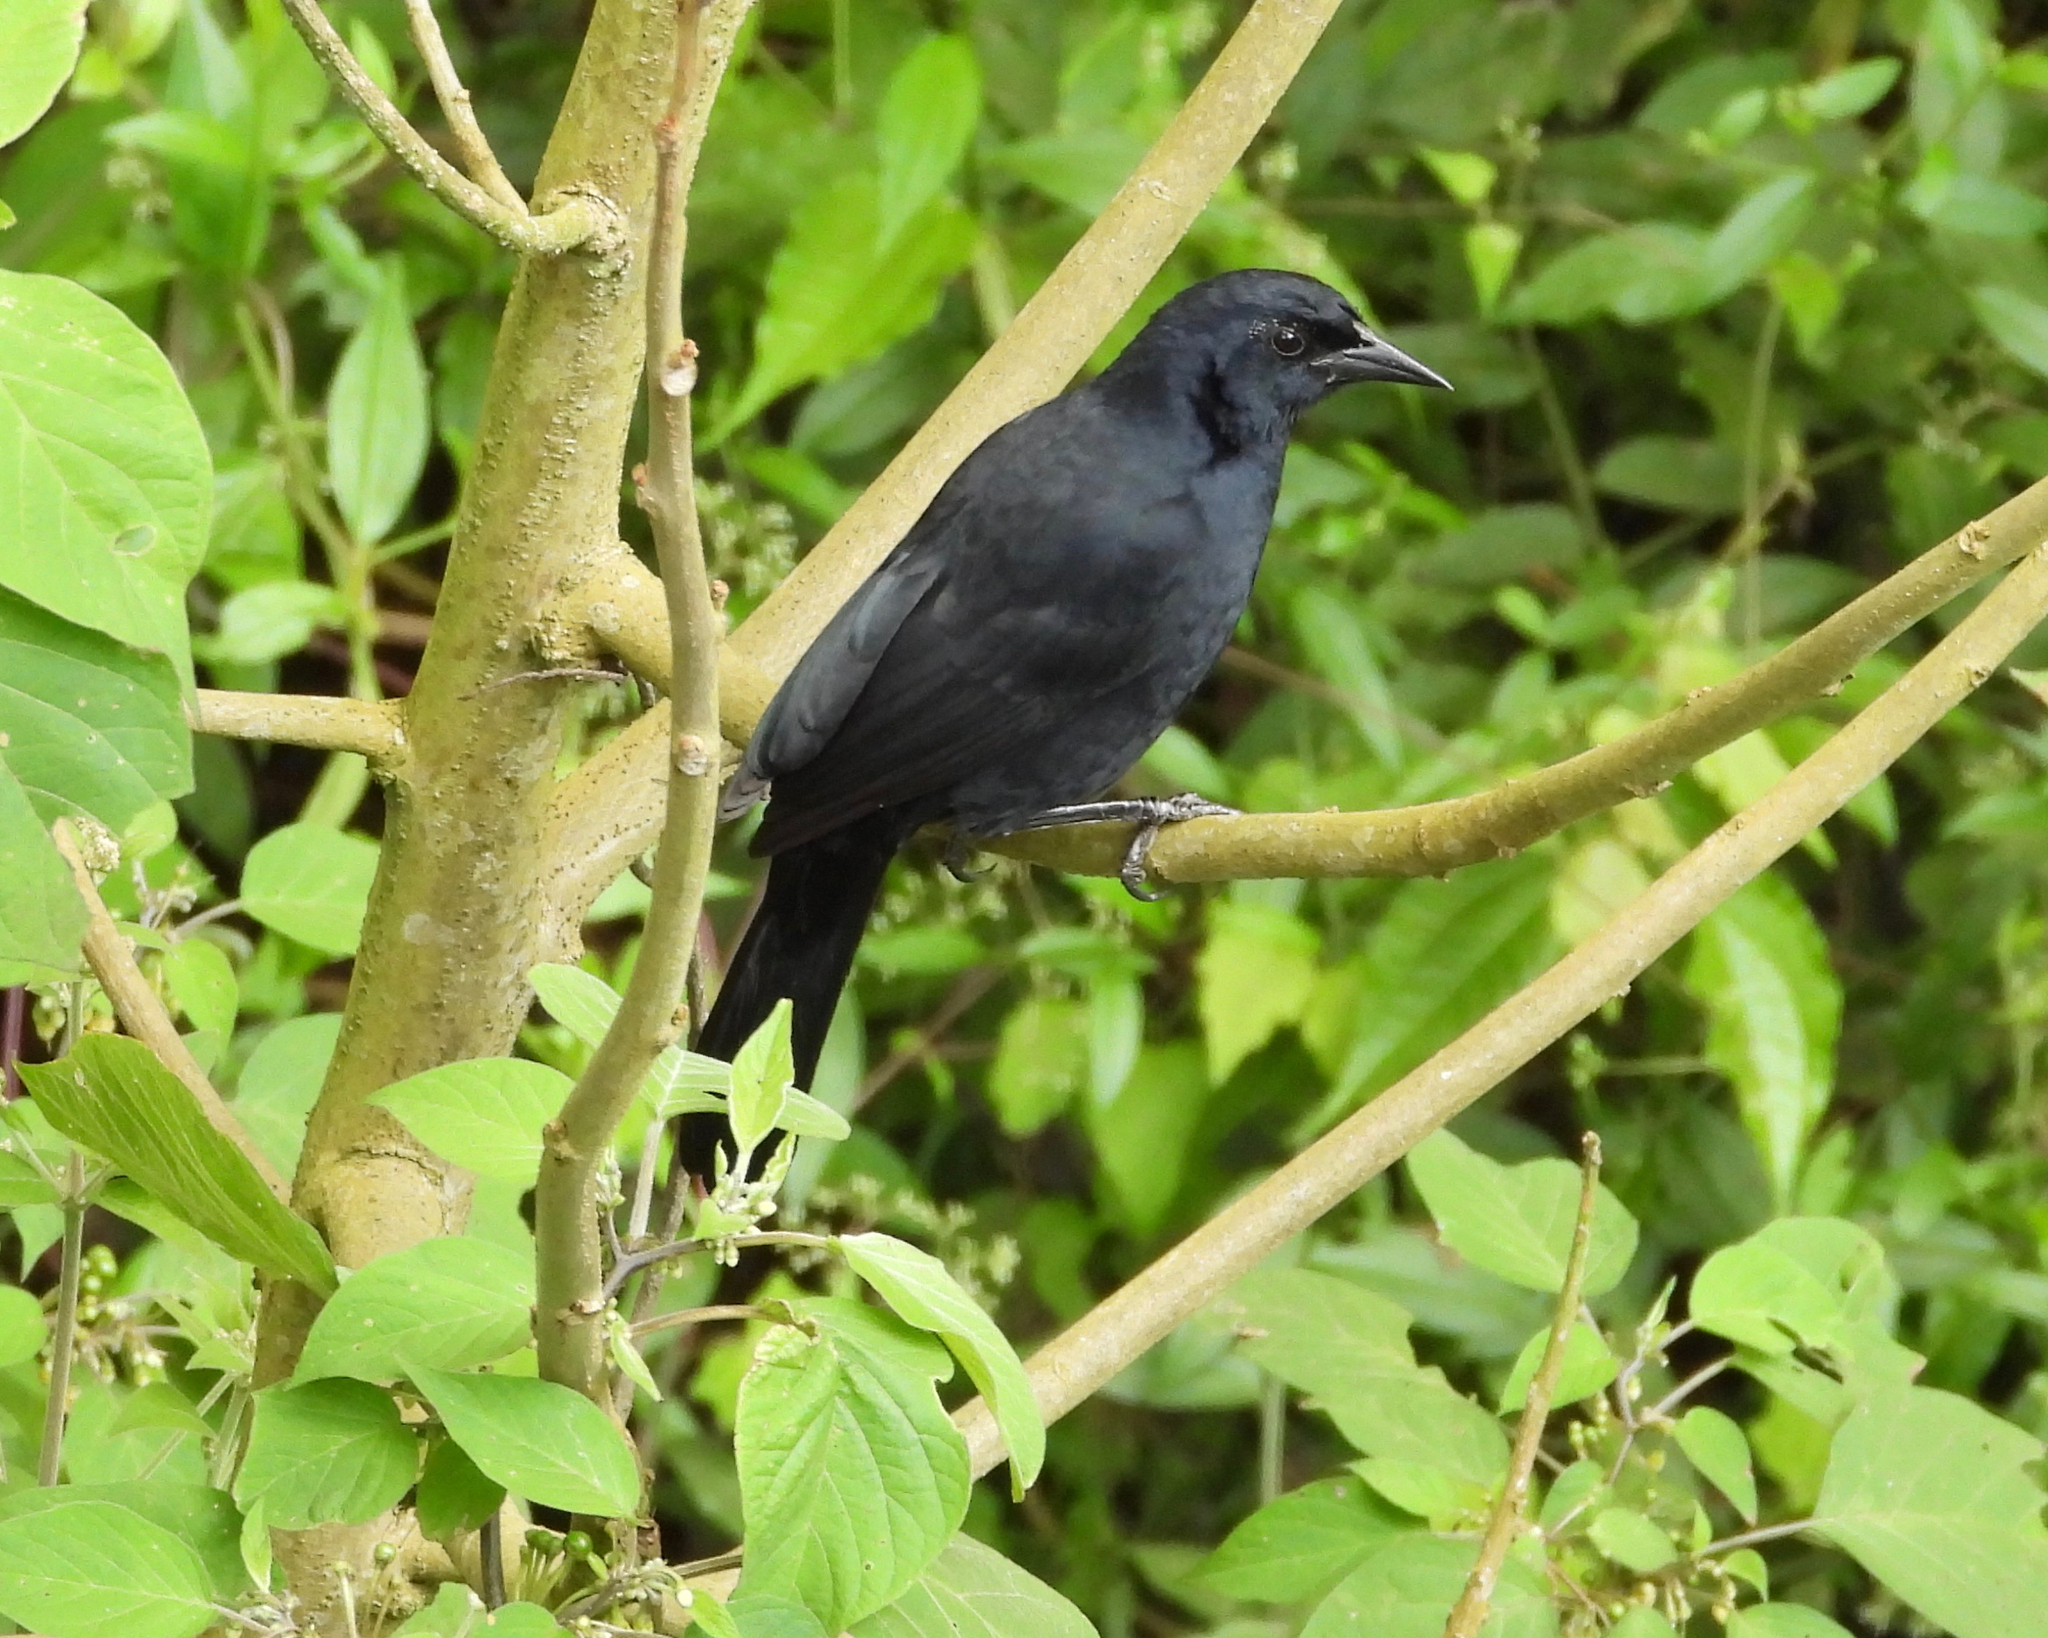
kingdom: Animalia
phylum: Chordata
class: Aves
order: Passeriformes
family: Icteridae
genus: Dives
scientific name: Dives dives
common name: Melodious blackbird
